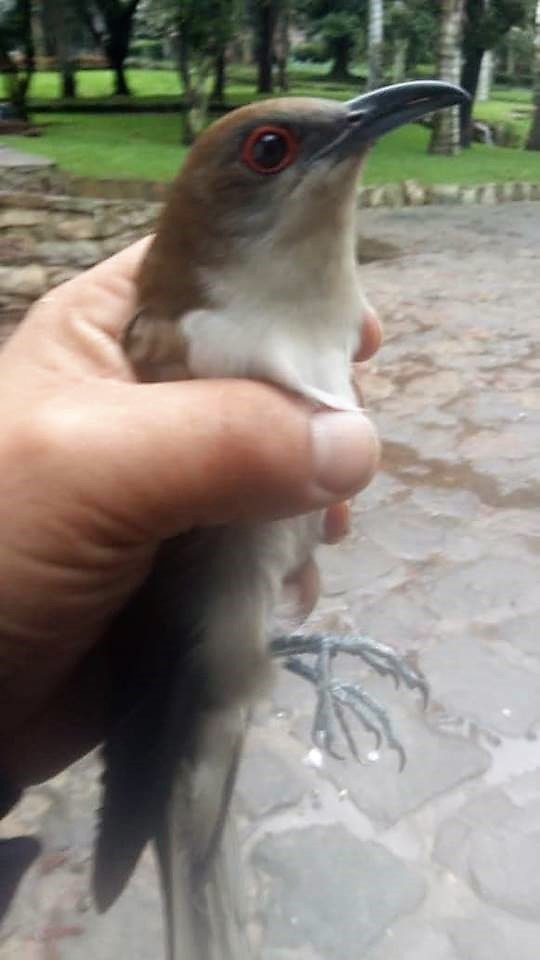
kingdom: Animalia
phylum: Chordata
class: Aves
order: Cuculiformes
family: Cuculidae
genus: Coccyzus
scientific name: Coccyzus erythropthalmus
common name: Black-billed cuckoo
